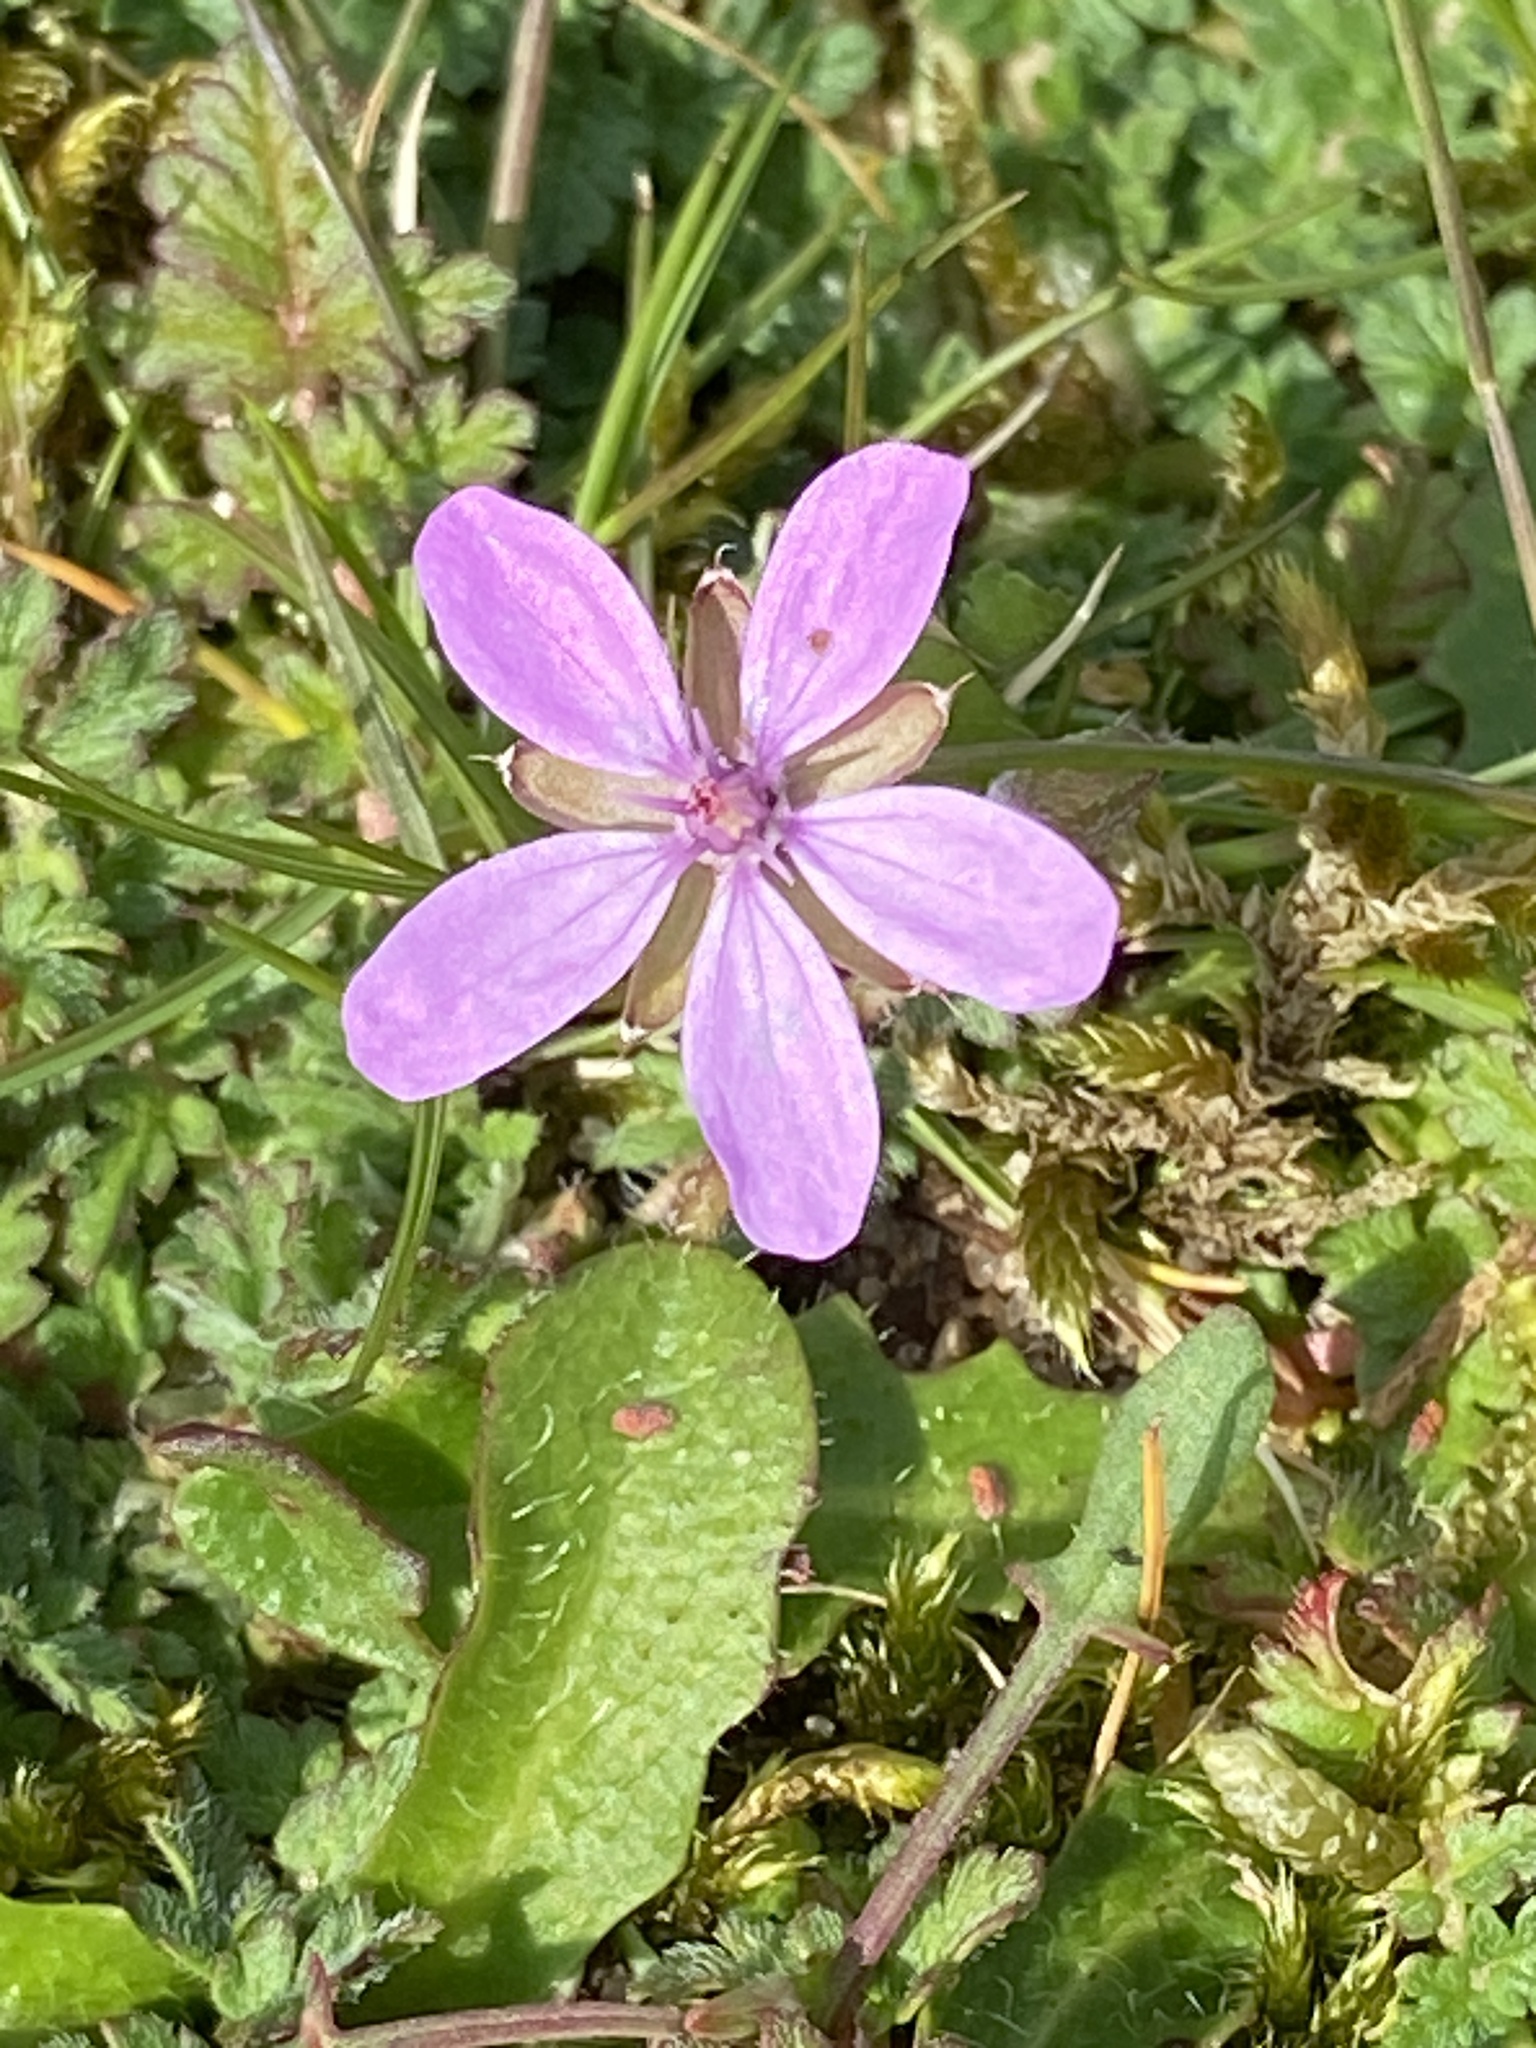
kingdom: Plantae
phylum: Tracheophyta
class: Magnoliopsida
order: Geraniales
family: Geraniaceae
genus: Erodium
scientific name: Erodium cicutarium
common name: Common stork's-bill
